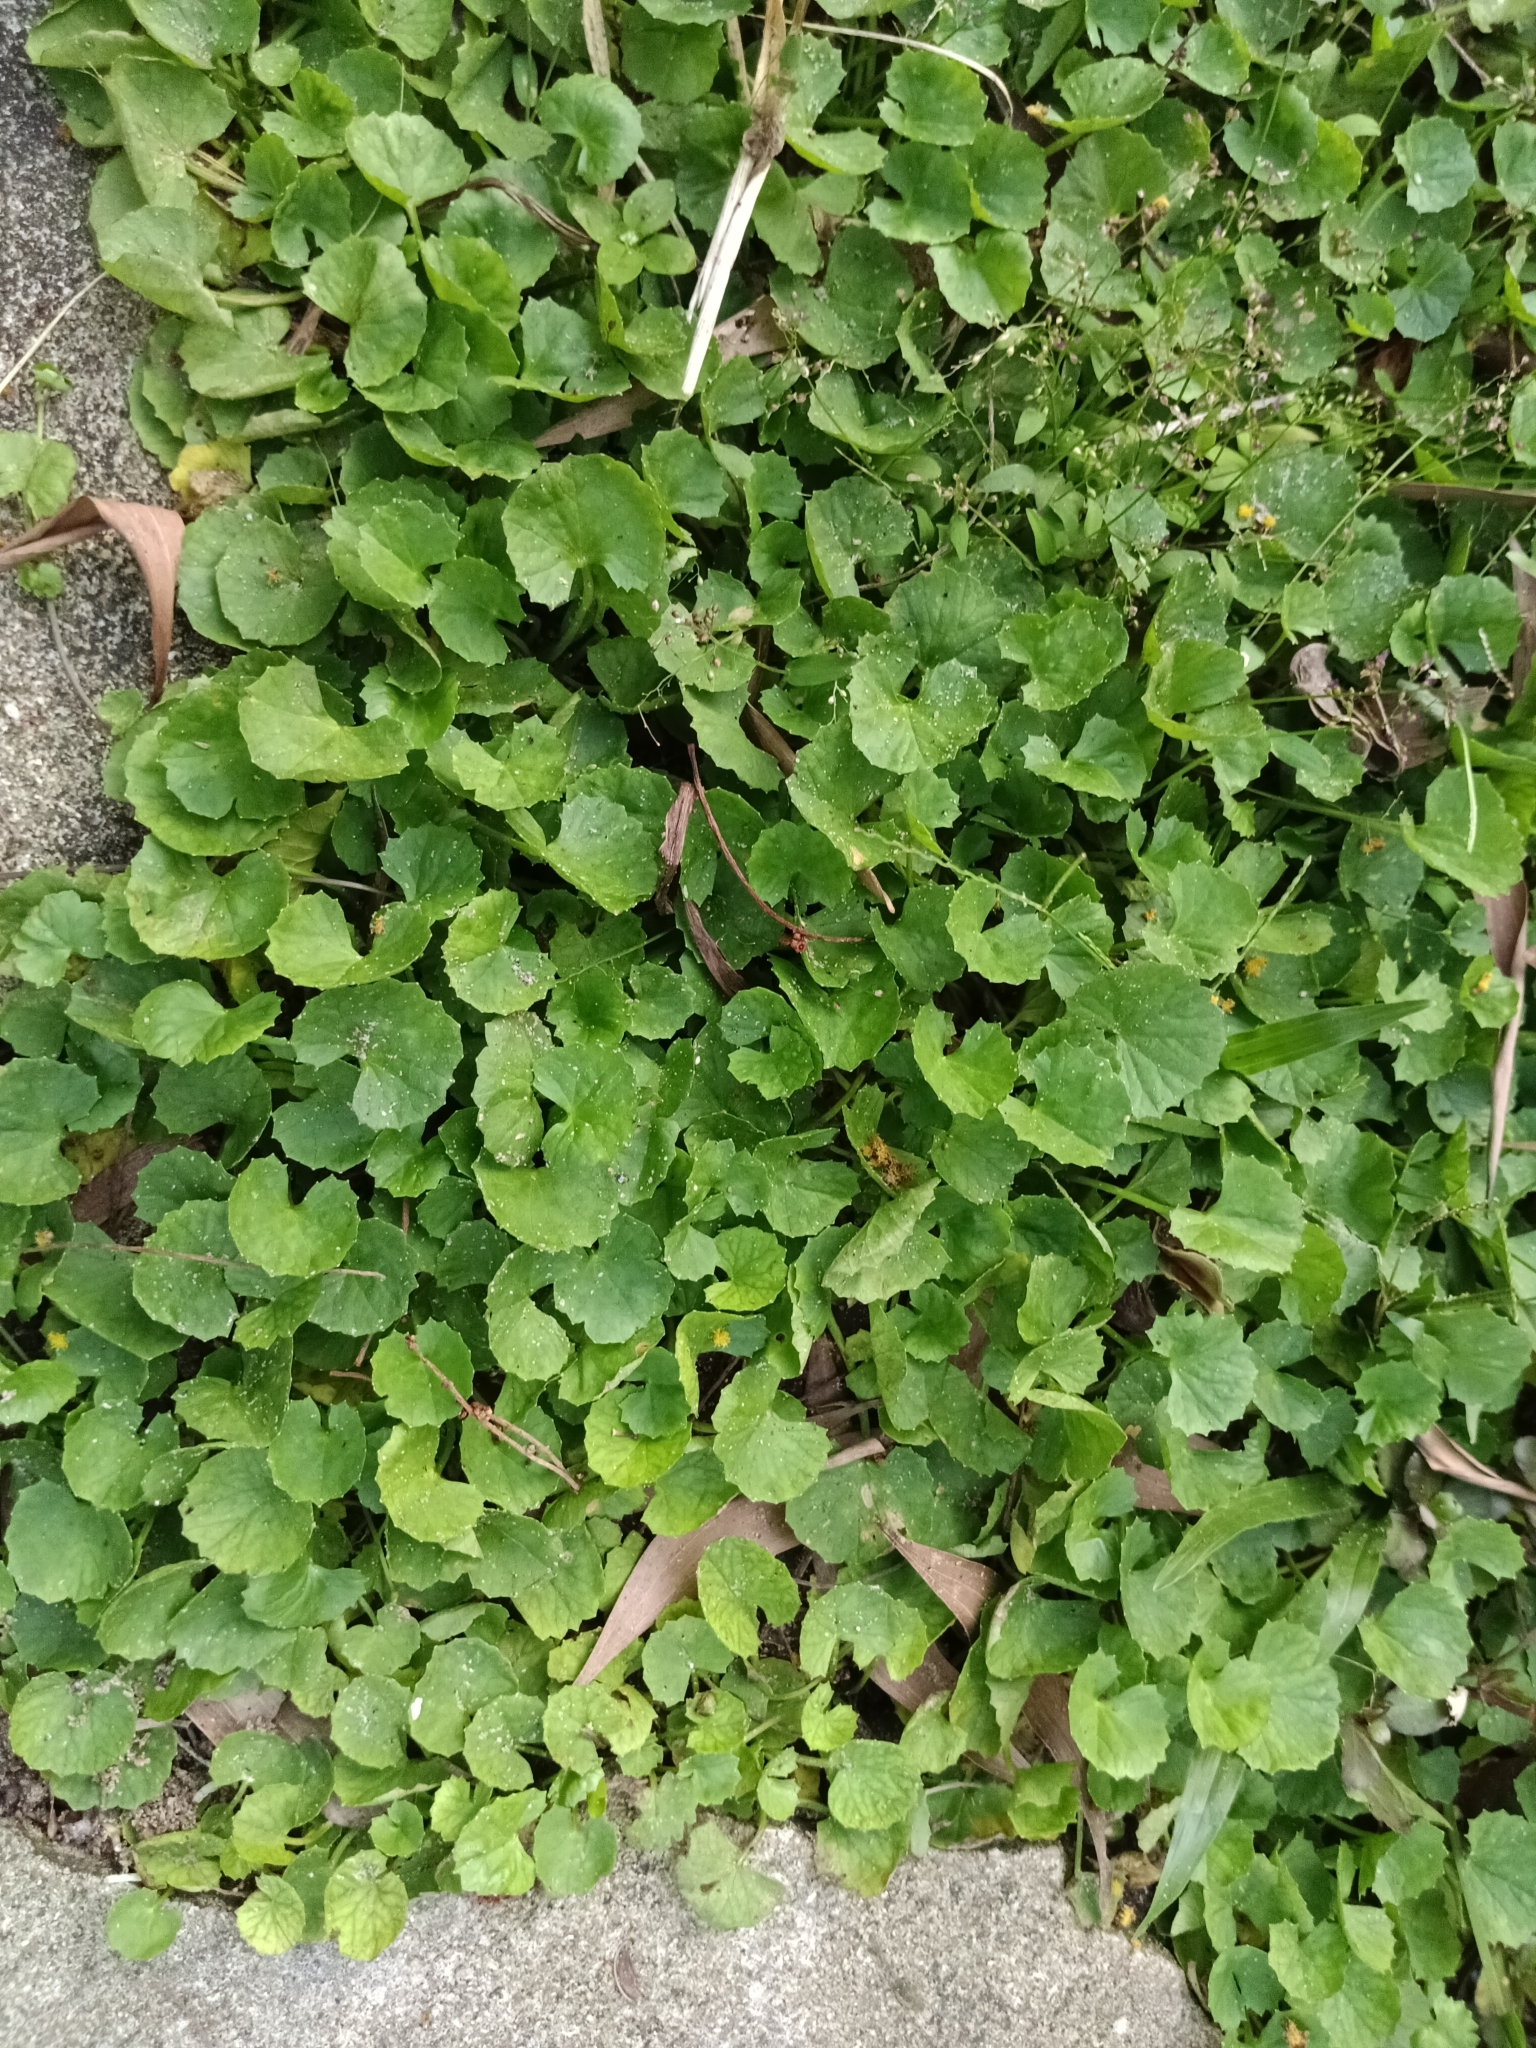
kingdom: Plantae
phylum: Tracheophyta
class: Magnoliopsida
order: Apiales
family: Apiaceae
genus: Centella
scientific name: Centella asiatica
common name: Spadeleaf
